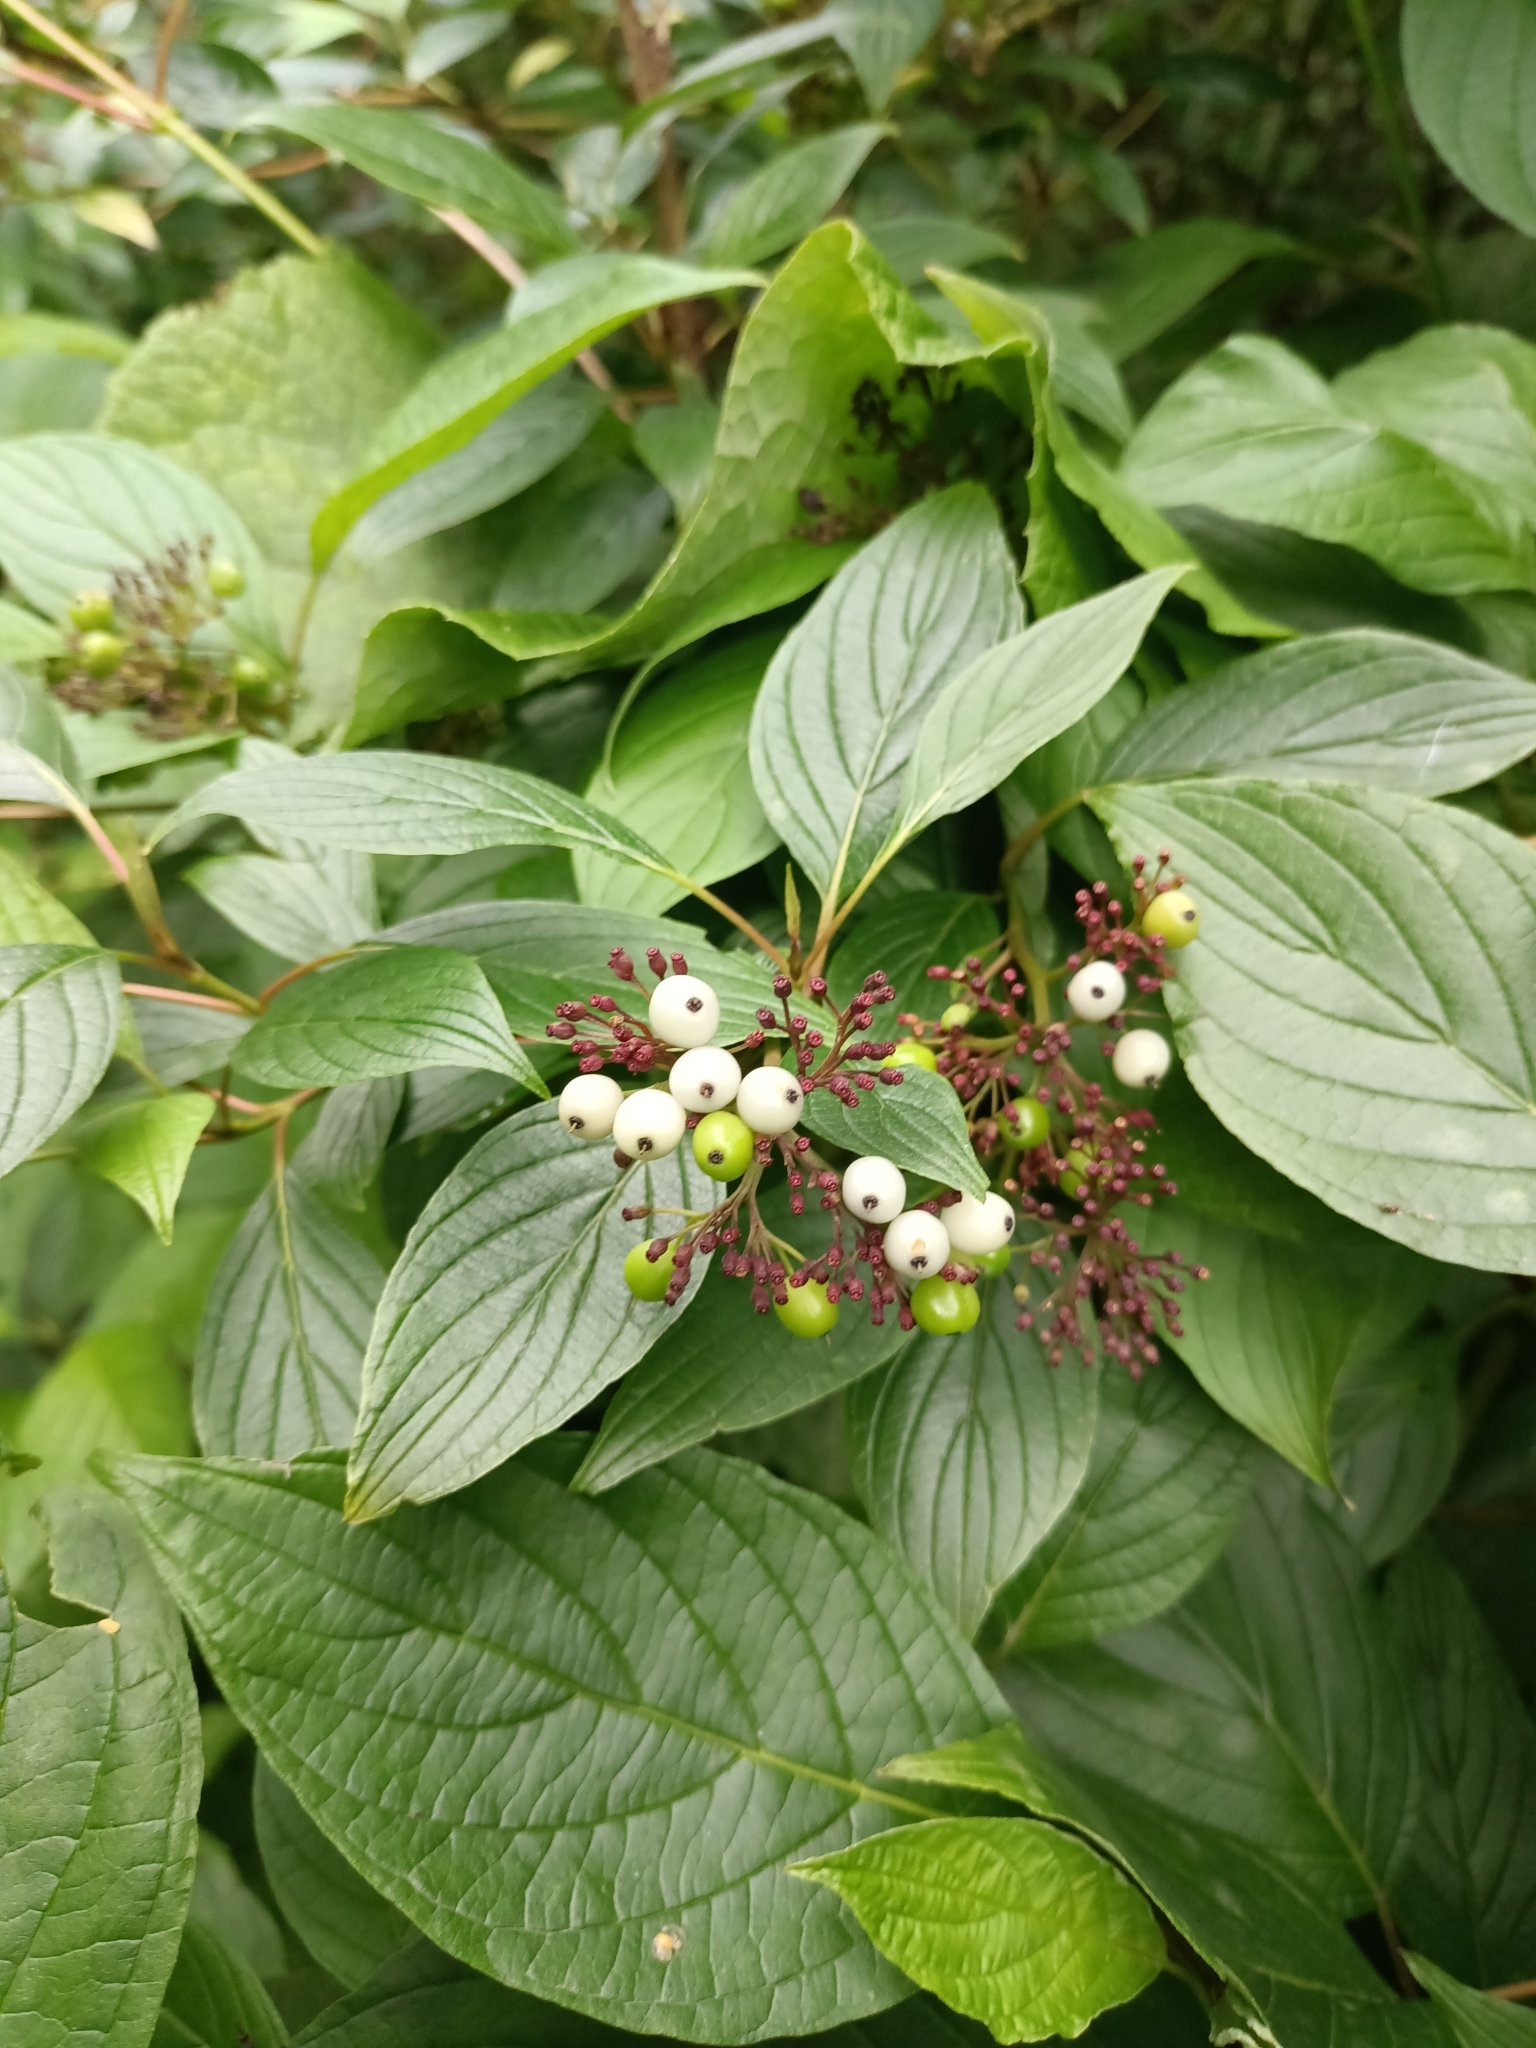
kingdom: Plantae
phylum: Tracheophyta
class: Magnoliopsida
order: Cornales
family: Cornaceae
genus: Cornus
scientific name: Cornus alba
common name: White dogwood
